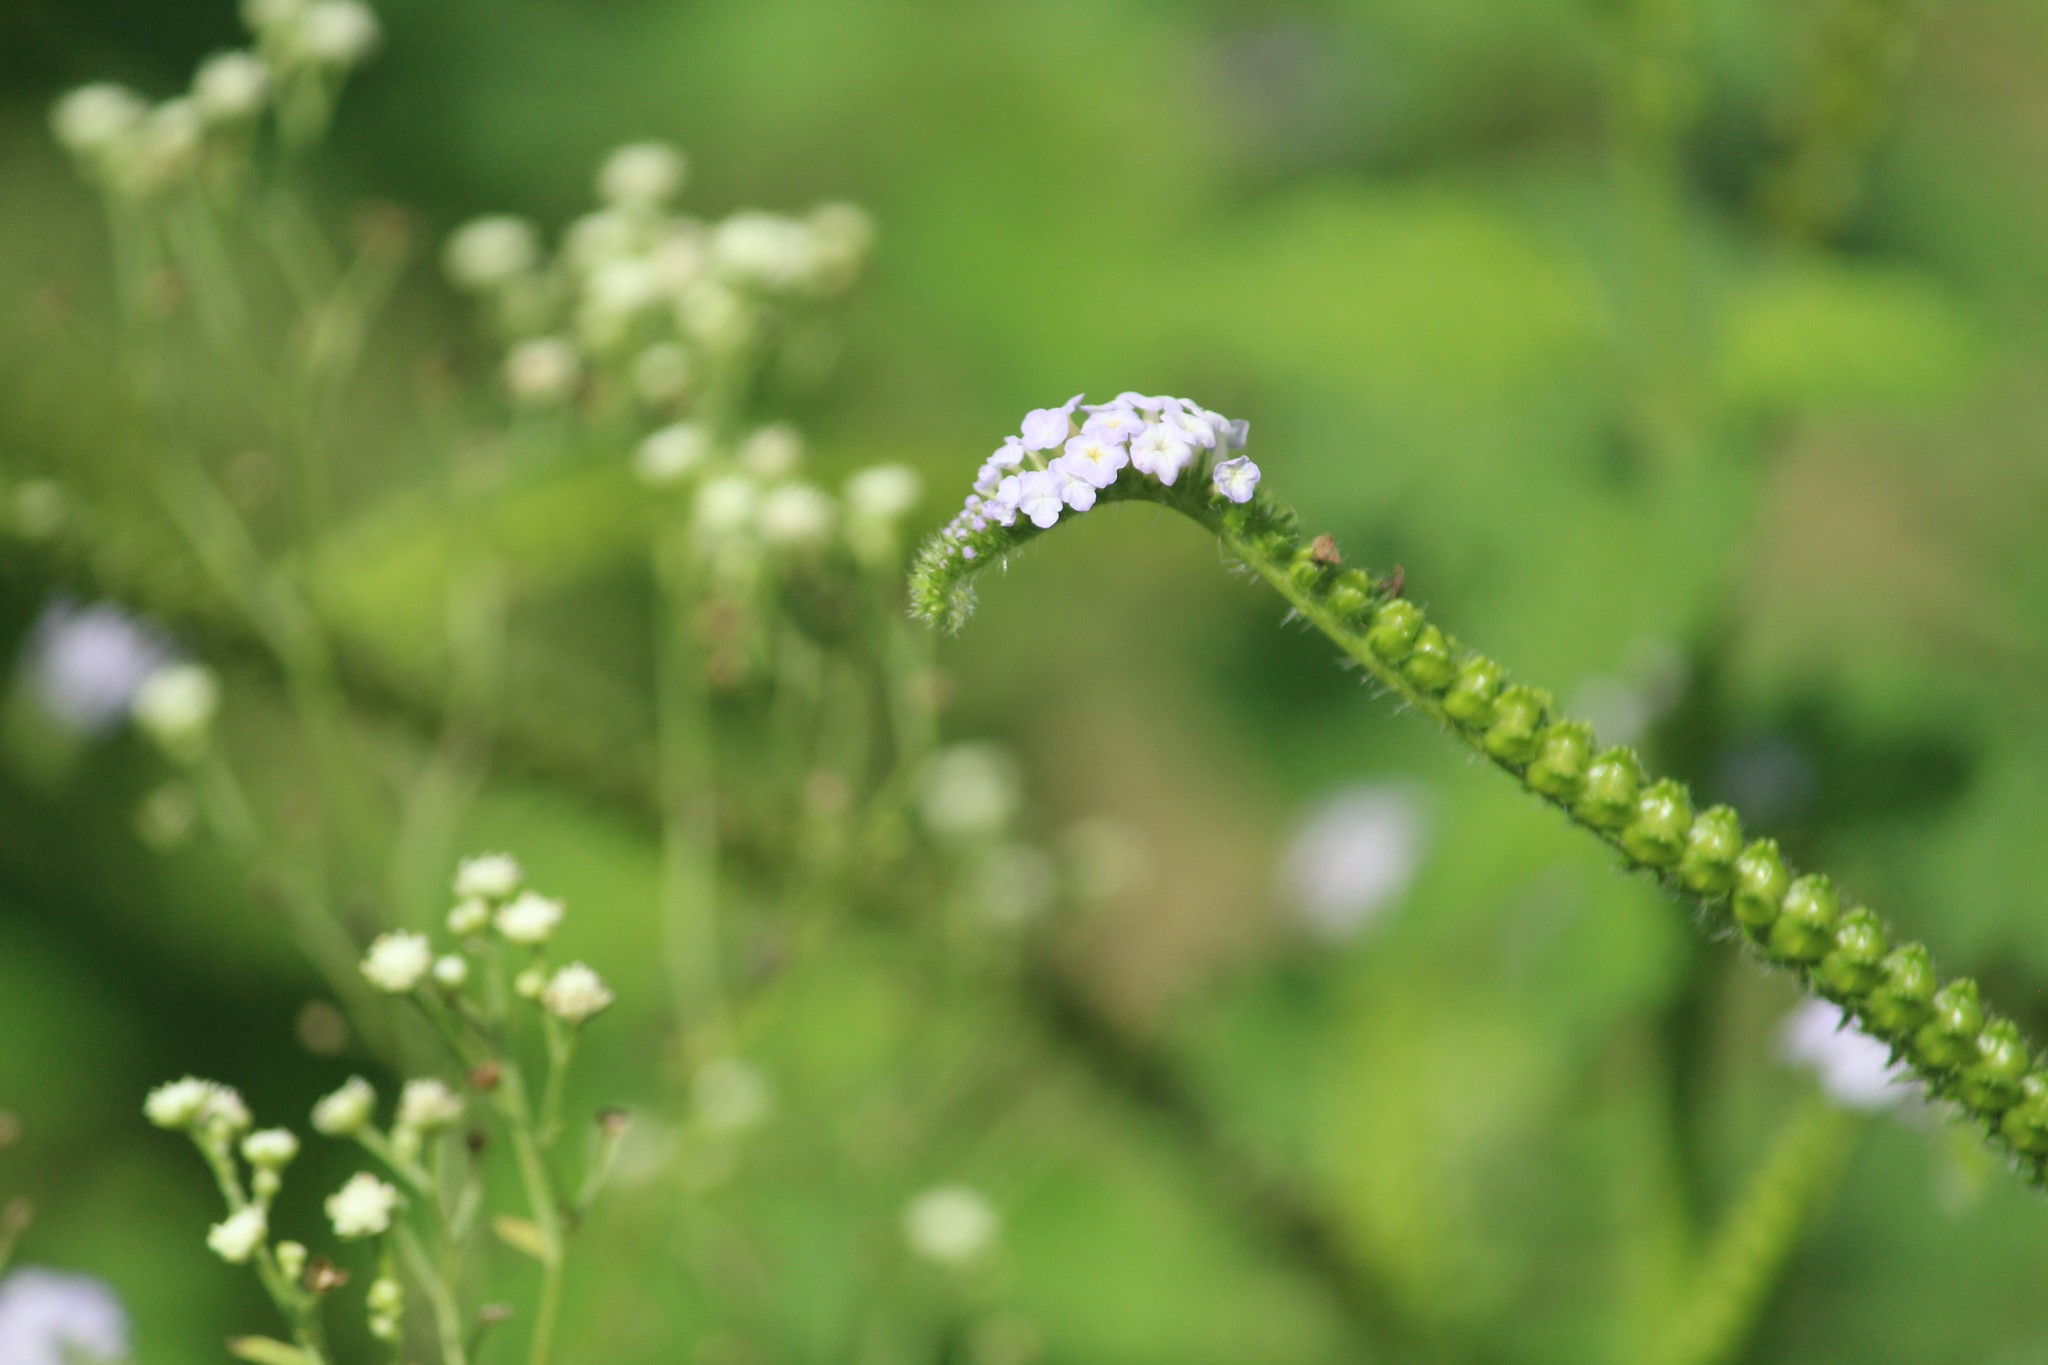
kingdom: Plantae
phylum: Tracheophyta
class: Magnoliopsida
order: Boraginales
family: Heliotropiaceae
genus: Heliotropium
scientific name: Heliotropium indicum
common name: Indian heliotrope
